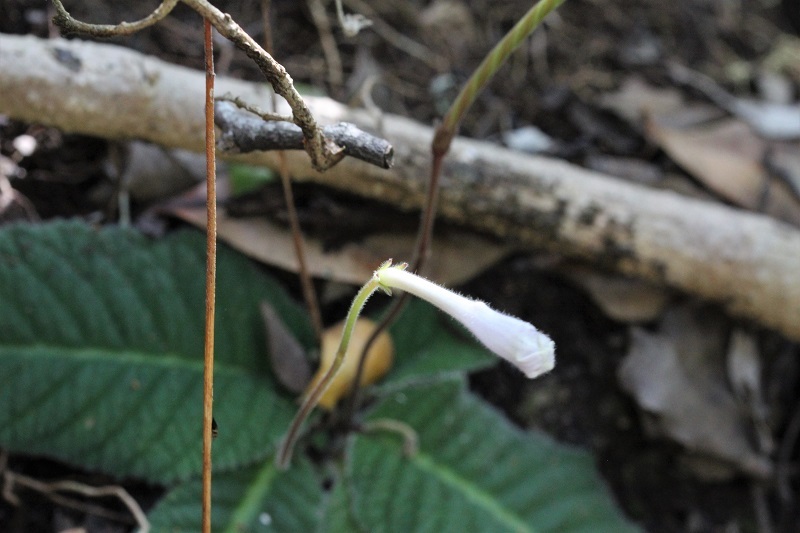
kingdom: Plantae
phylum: Tracheophyta
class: Magnoliopsida
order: Lamiales
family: Gesneriaceae
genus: Streptocarpus
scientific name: Streptocarpus rexii
